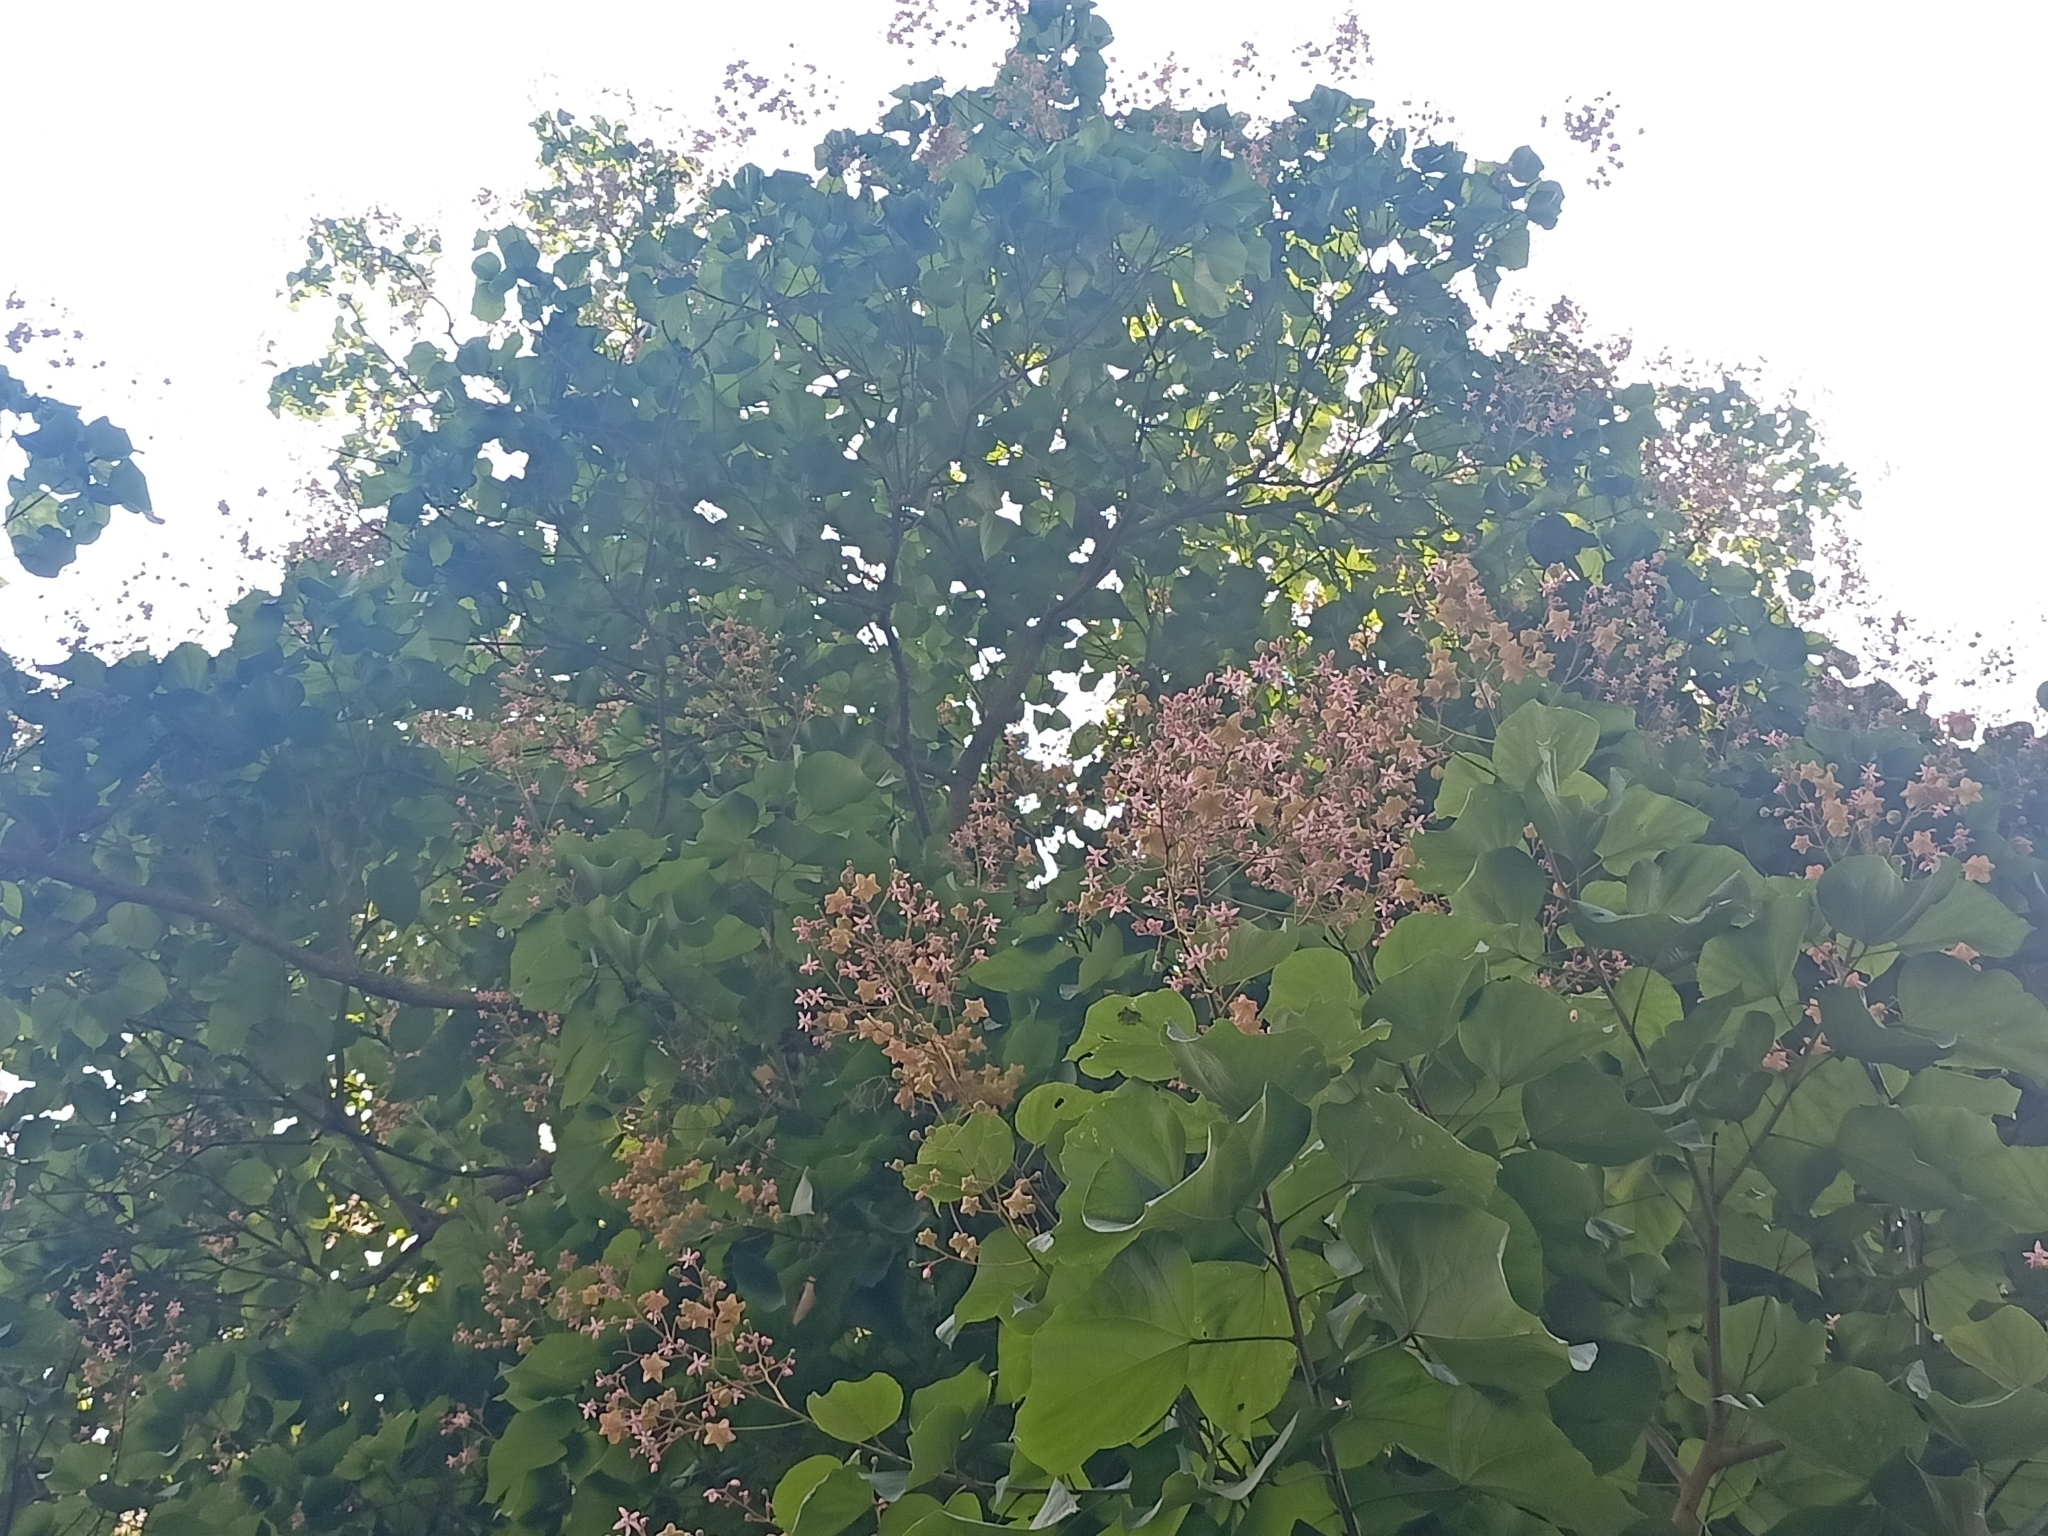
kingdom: Plantae
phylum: Tracheophyta
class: Magnoliopsida
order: Malvales
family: Malvaceae
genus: Kleinhovia
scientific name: Kleinhovia hospita
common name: Guest-tree
